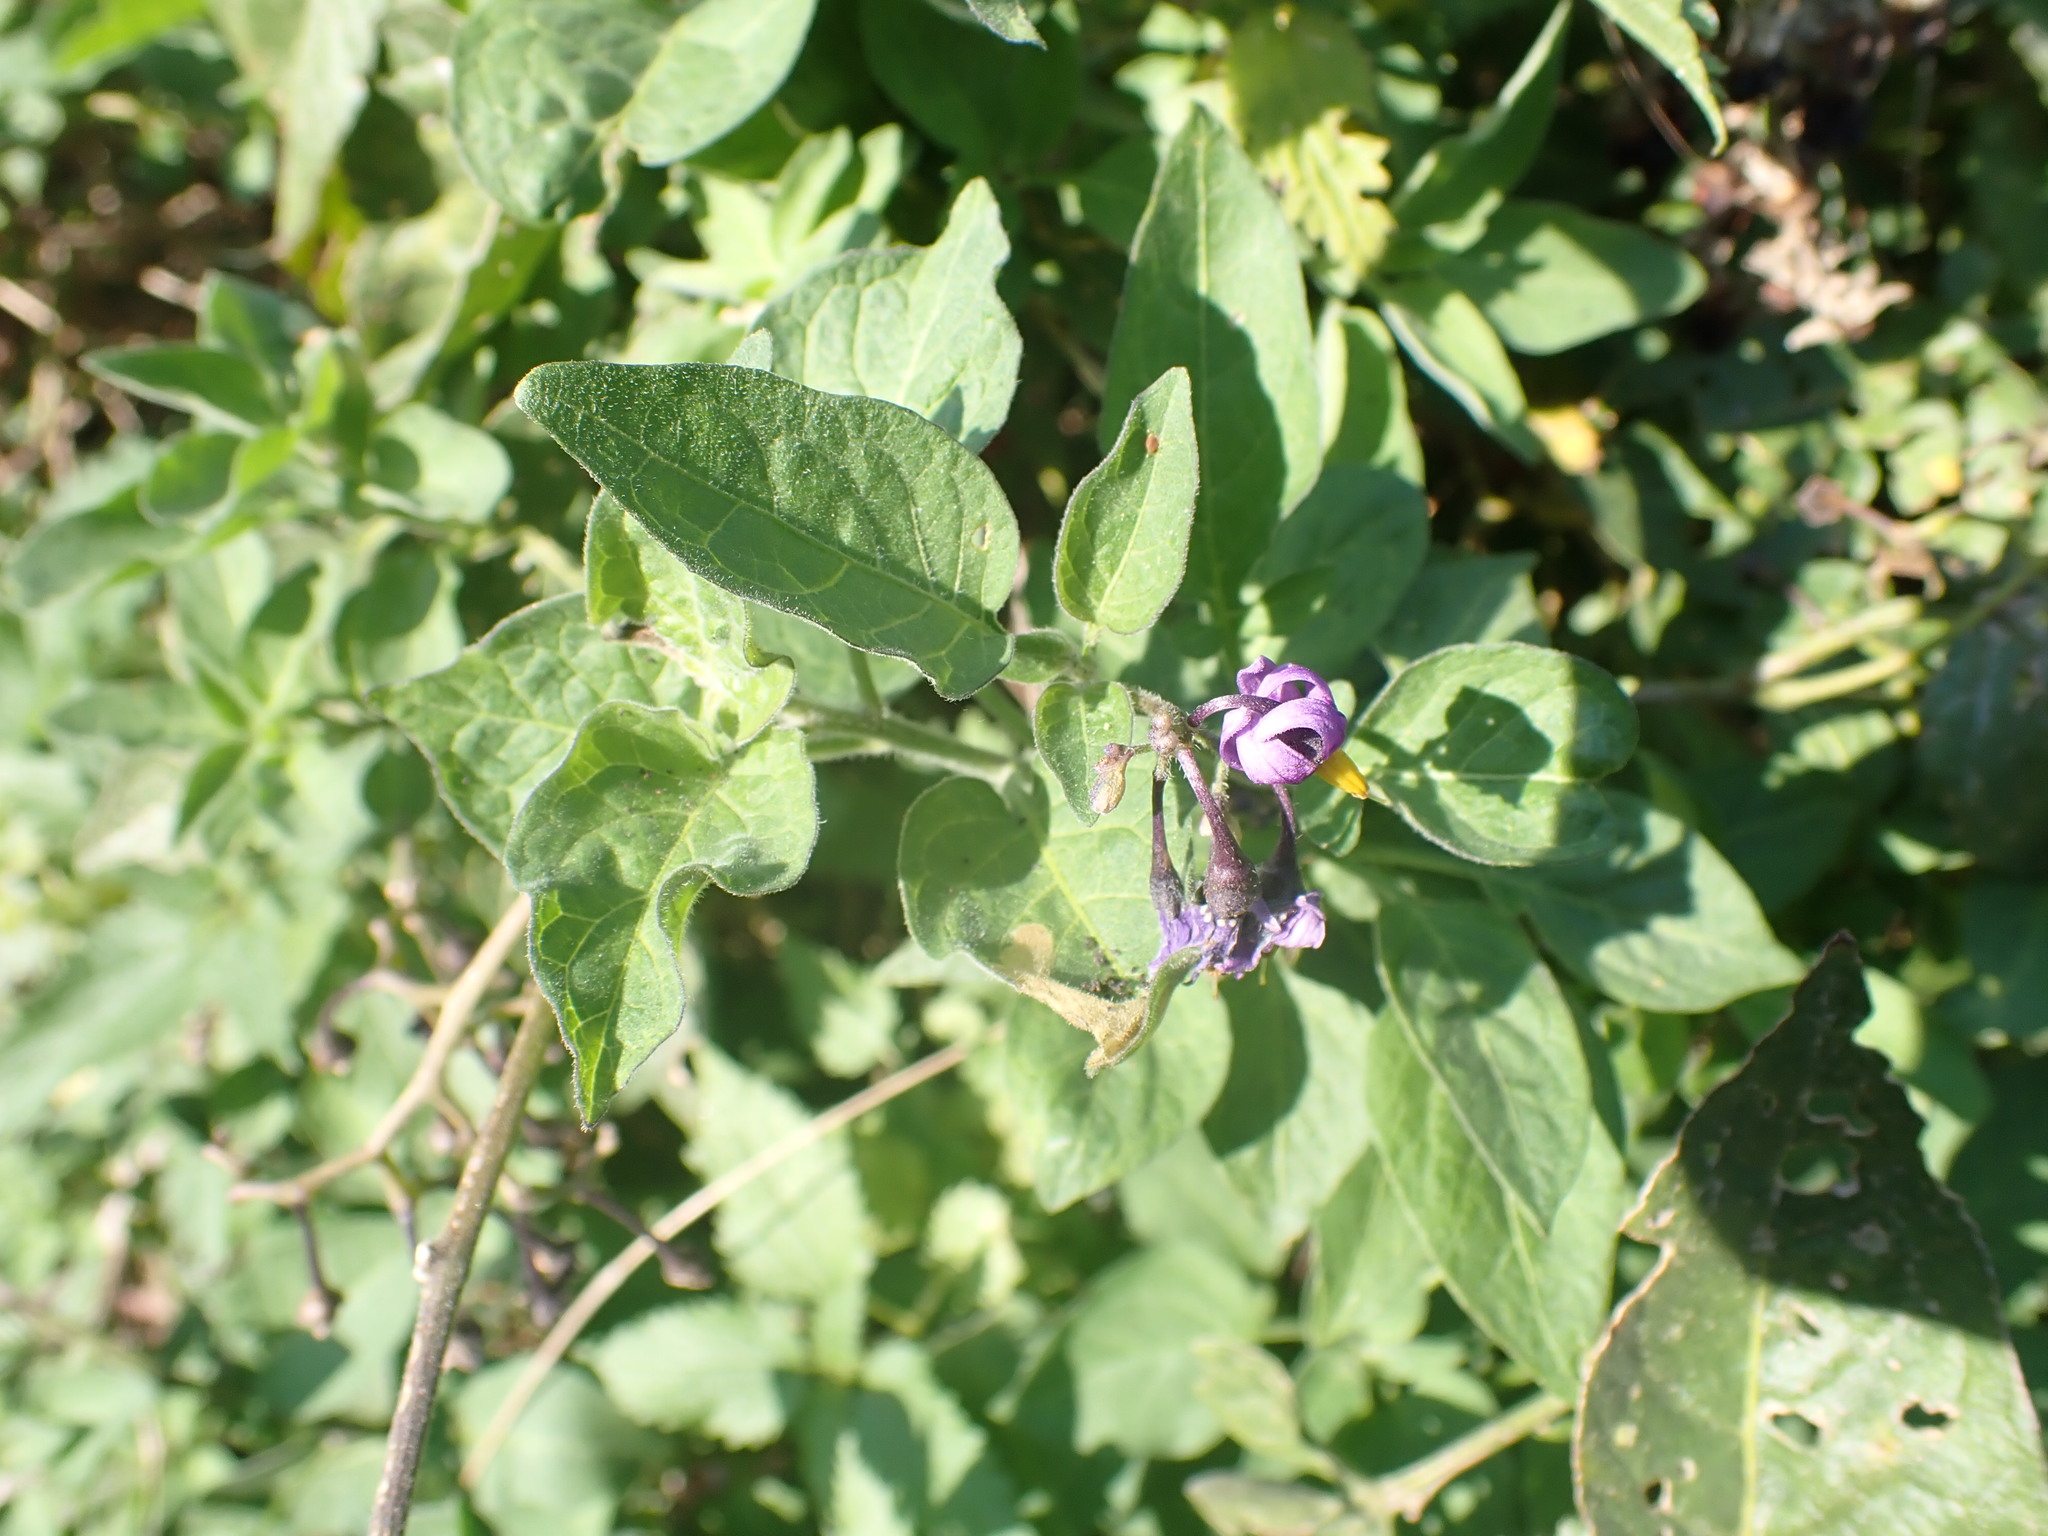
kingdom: Plantae
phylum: Tracheophyta
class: Magnoliopsida
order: Solanales
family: Solanaceae
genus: Solanum
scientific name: Solanum dulcamara
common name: Climbing nightshade
